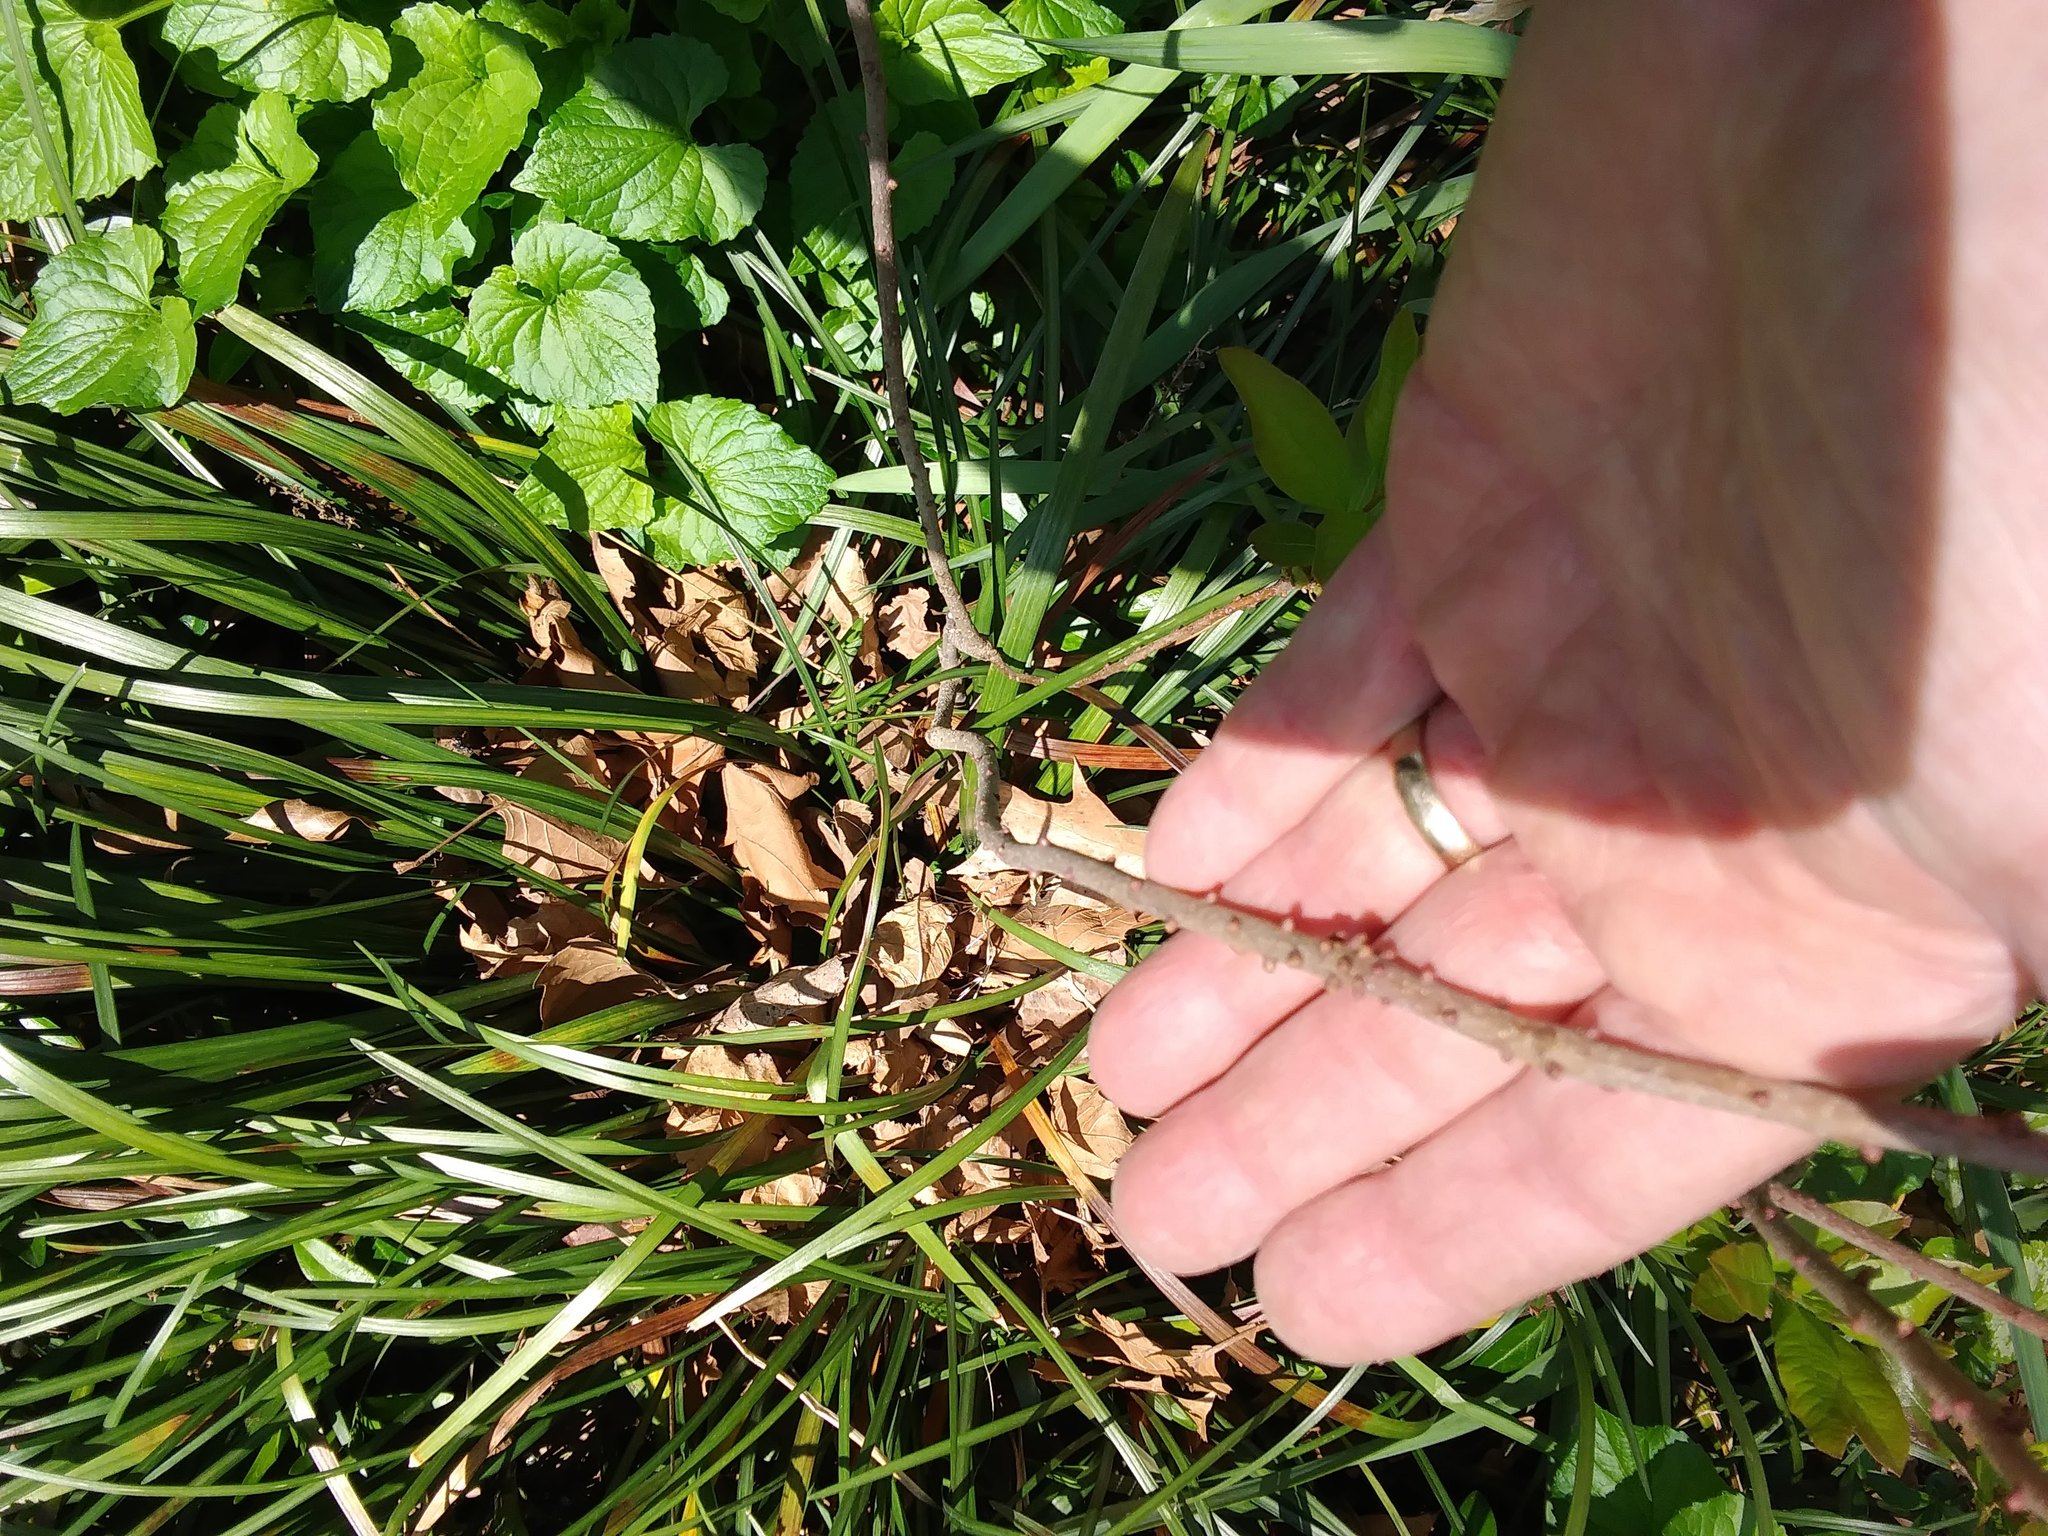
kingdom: Plantae
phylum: Tracheophyta
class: Magnoliopsida
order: Fagales
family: Myricaceae
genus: Morella
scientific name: Morella pensylvanica
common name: Northern bayberry
